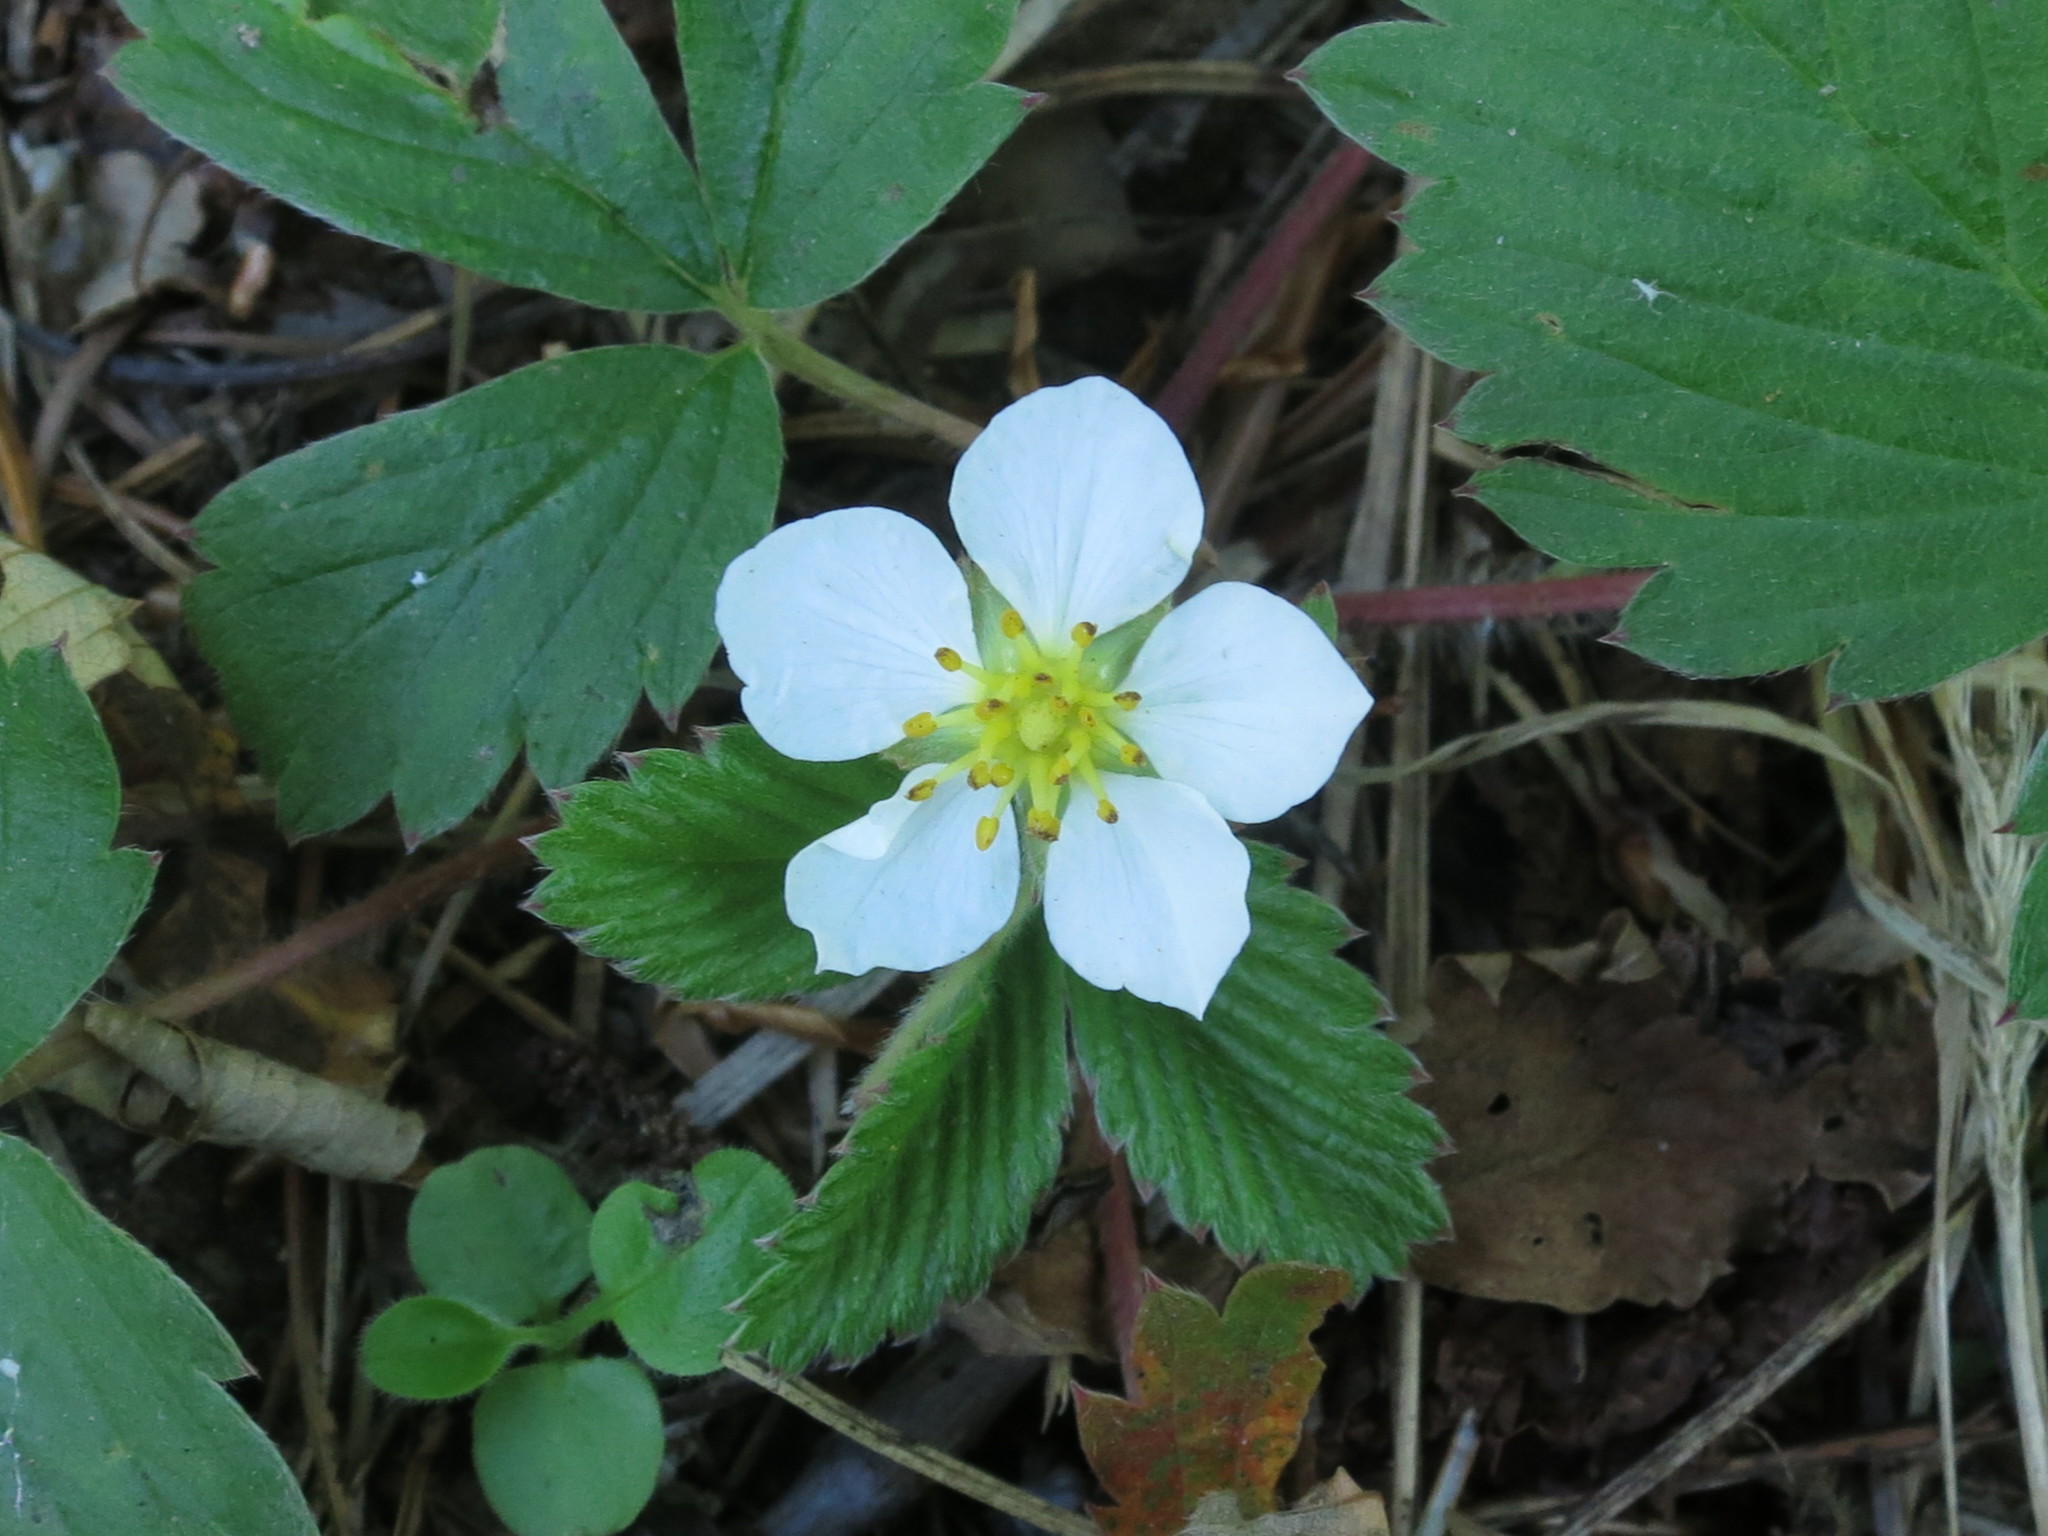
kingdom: Plantae
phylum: Tracheophyta
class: Magnoliopsida
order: Rosales
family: Rosaceae
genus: Fragaria
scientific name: Fragaria orientalis
